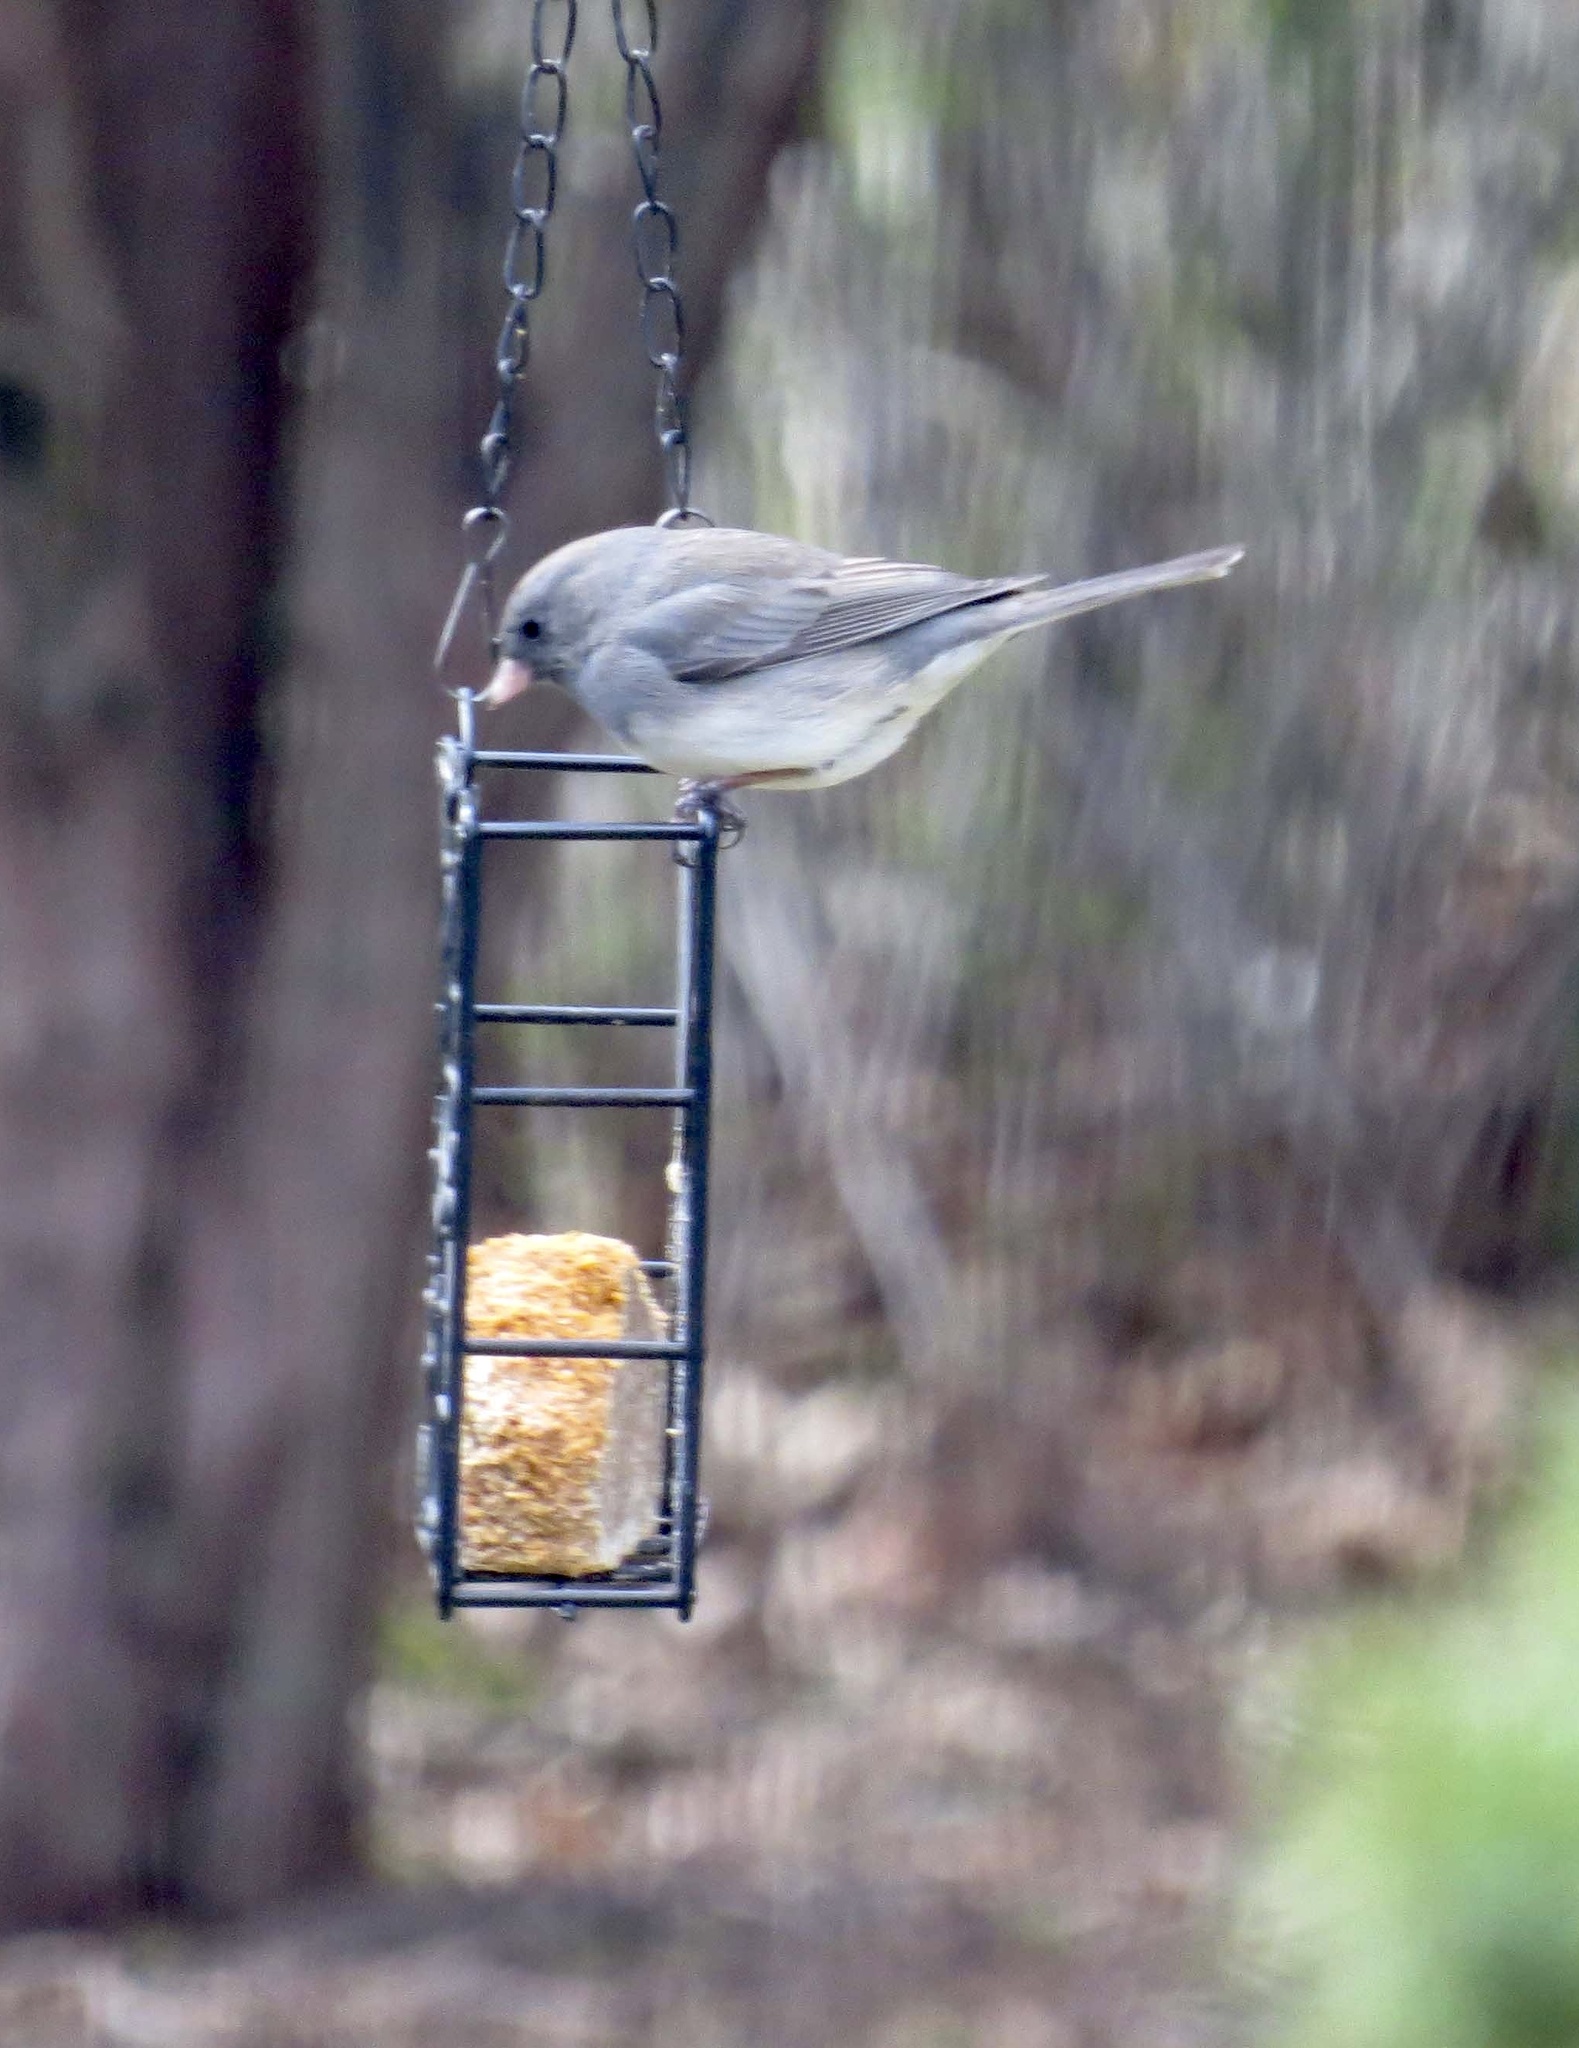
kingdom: Animalia
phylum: Chordata
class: Aves
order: Passeriformes
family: Passerellidae
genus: Junco
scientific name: Junco hyemalis
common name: Dark-eyed junco
